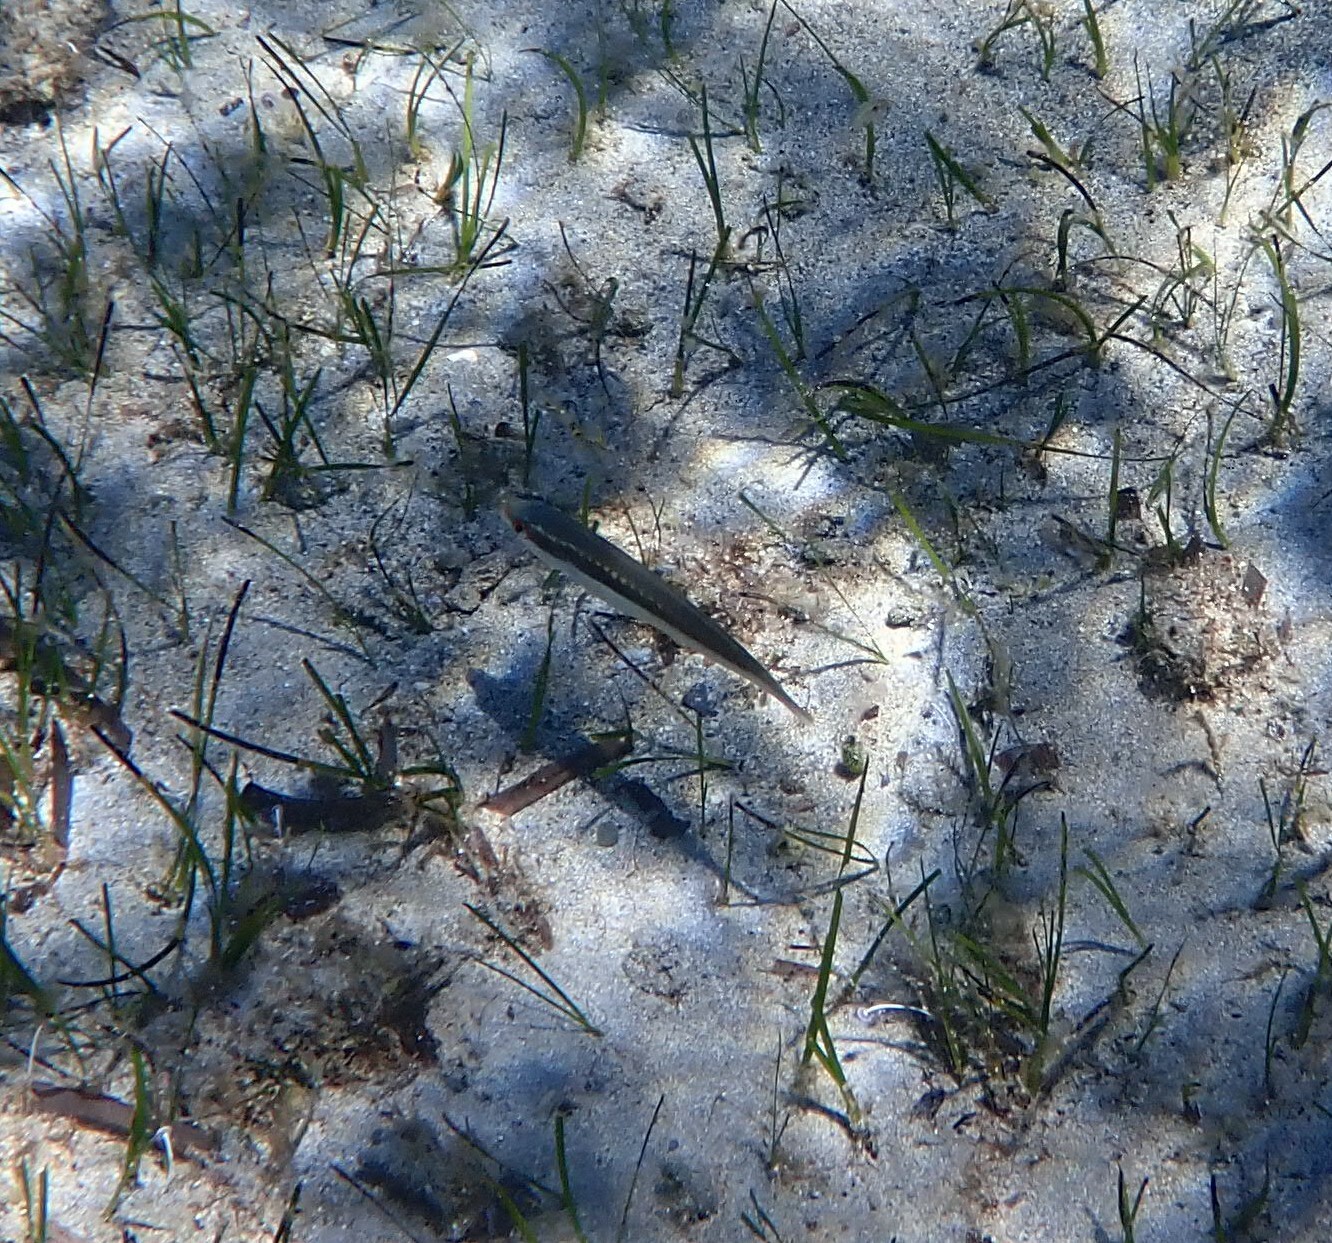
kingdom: Animalia
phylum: Chordata
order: Perciformes
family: Labridae
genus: Coris
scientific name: Coris julis
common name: Rainbow wrasse
